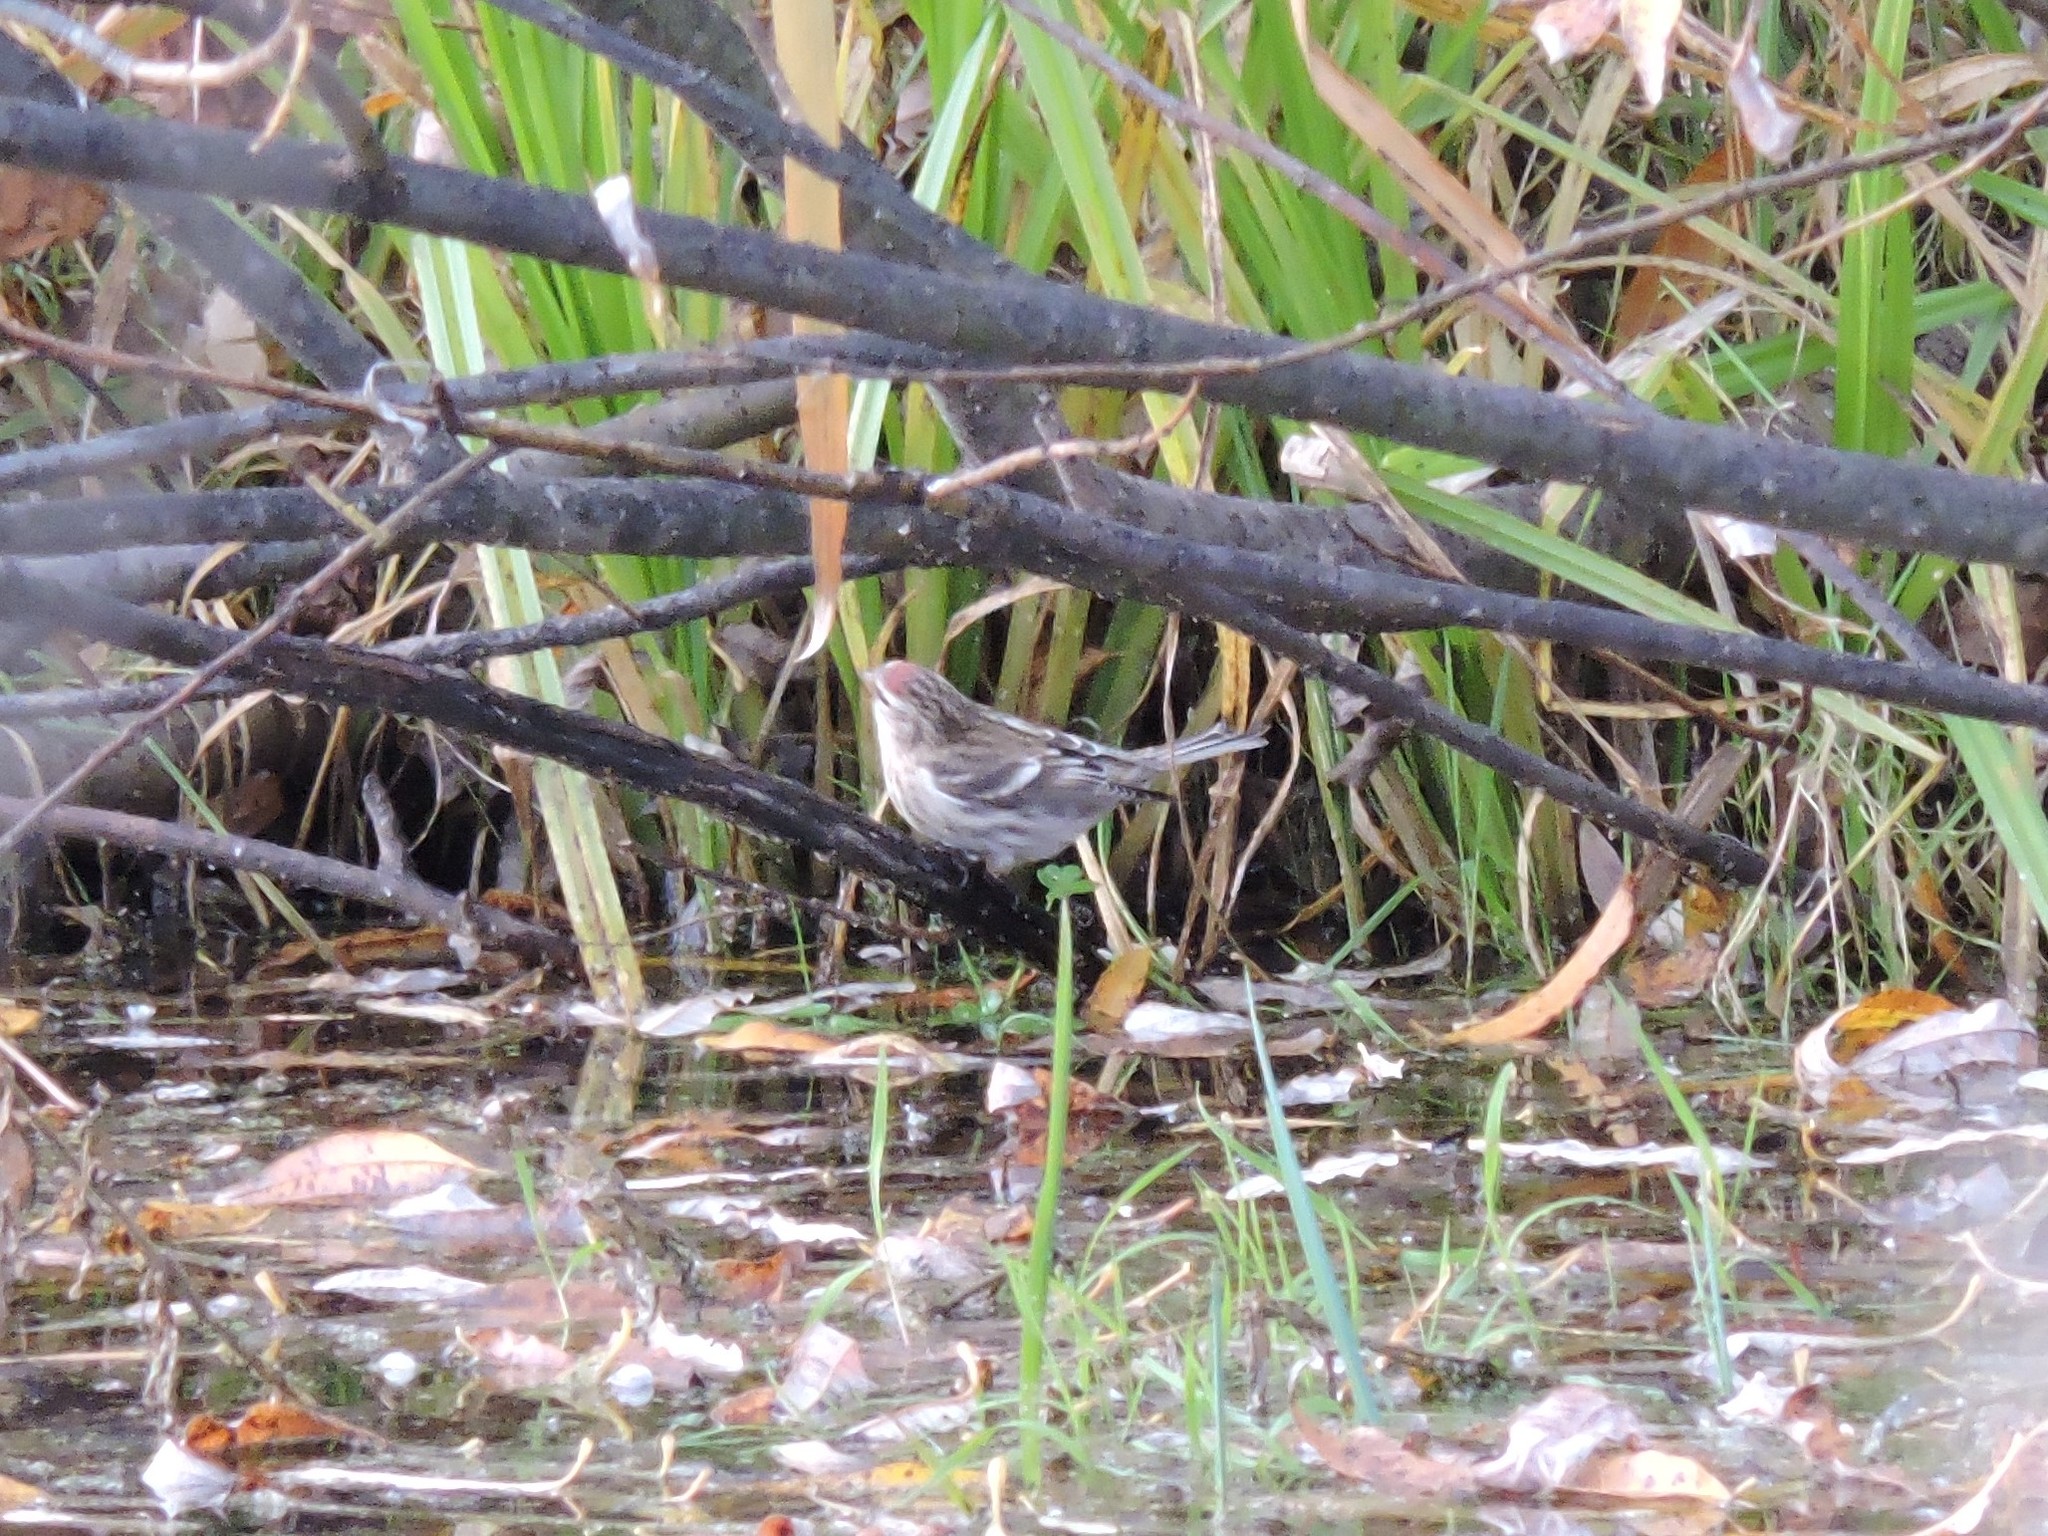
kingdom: Animalia
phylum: Chordata
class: Aves
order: Passeriformes
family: Fringillidae
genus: Acanthis
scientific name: Acanthis flammea
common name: Common redpoll
